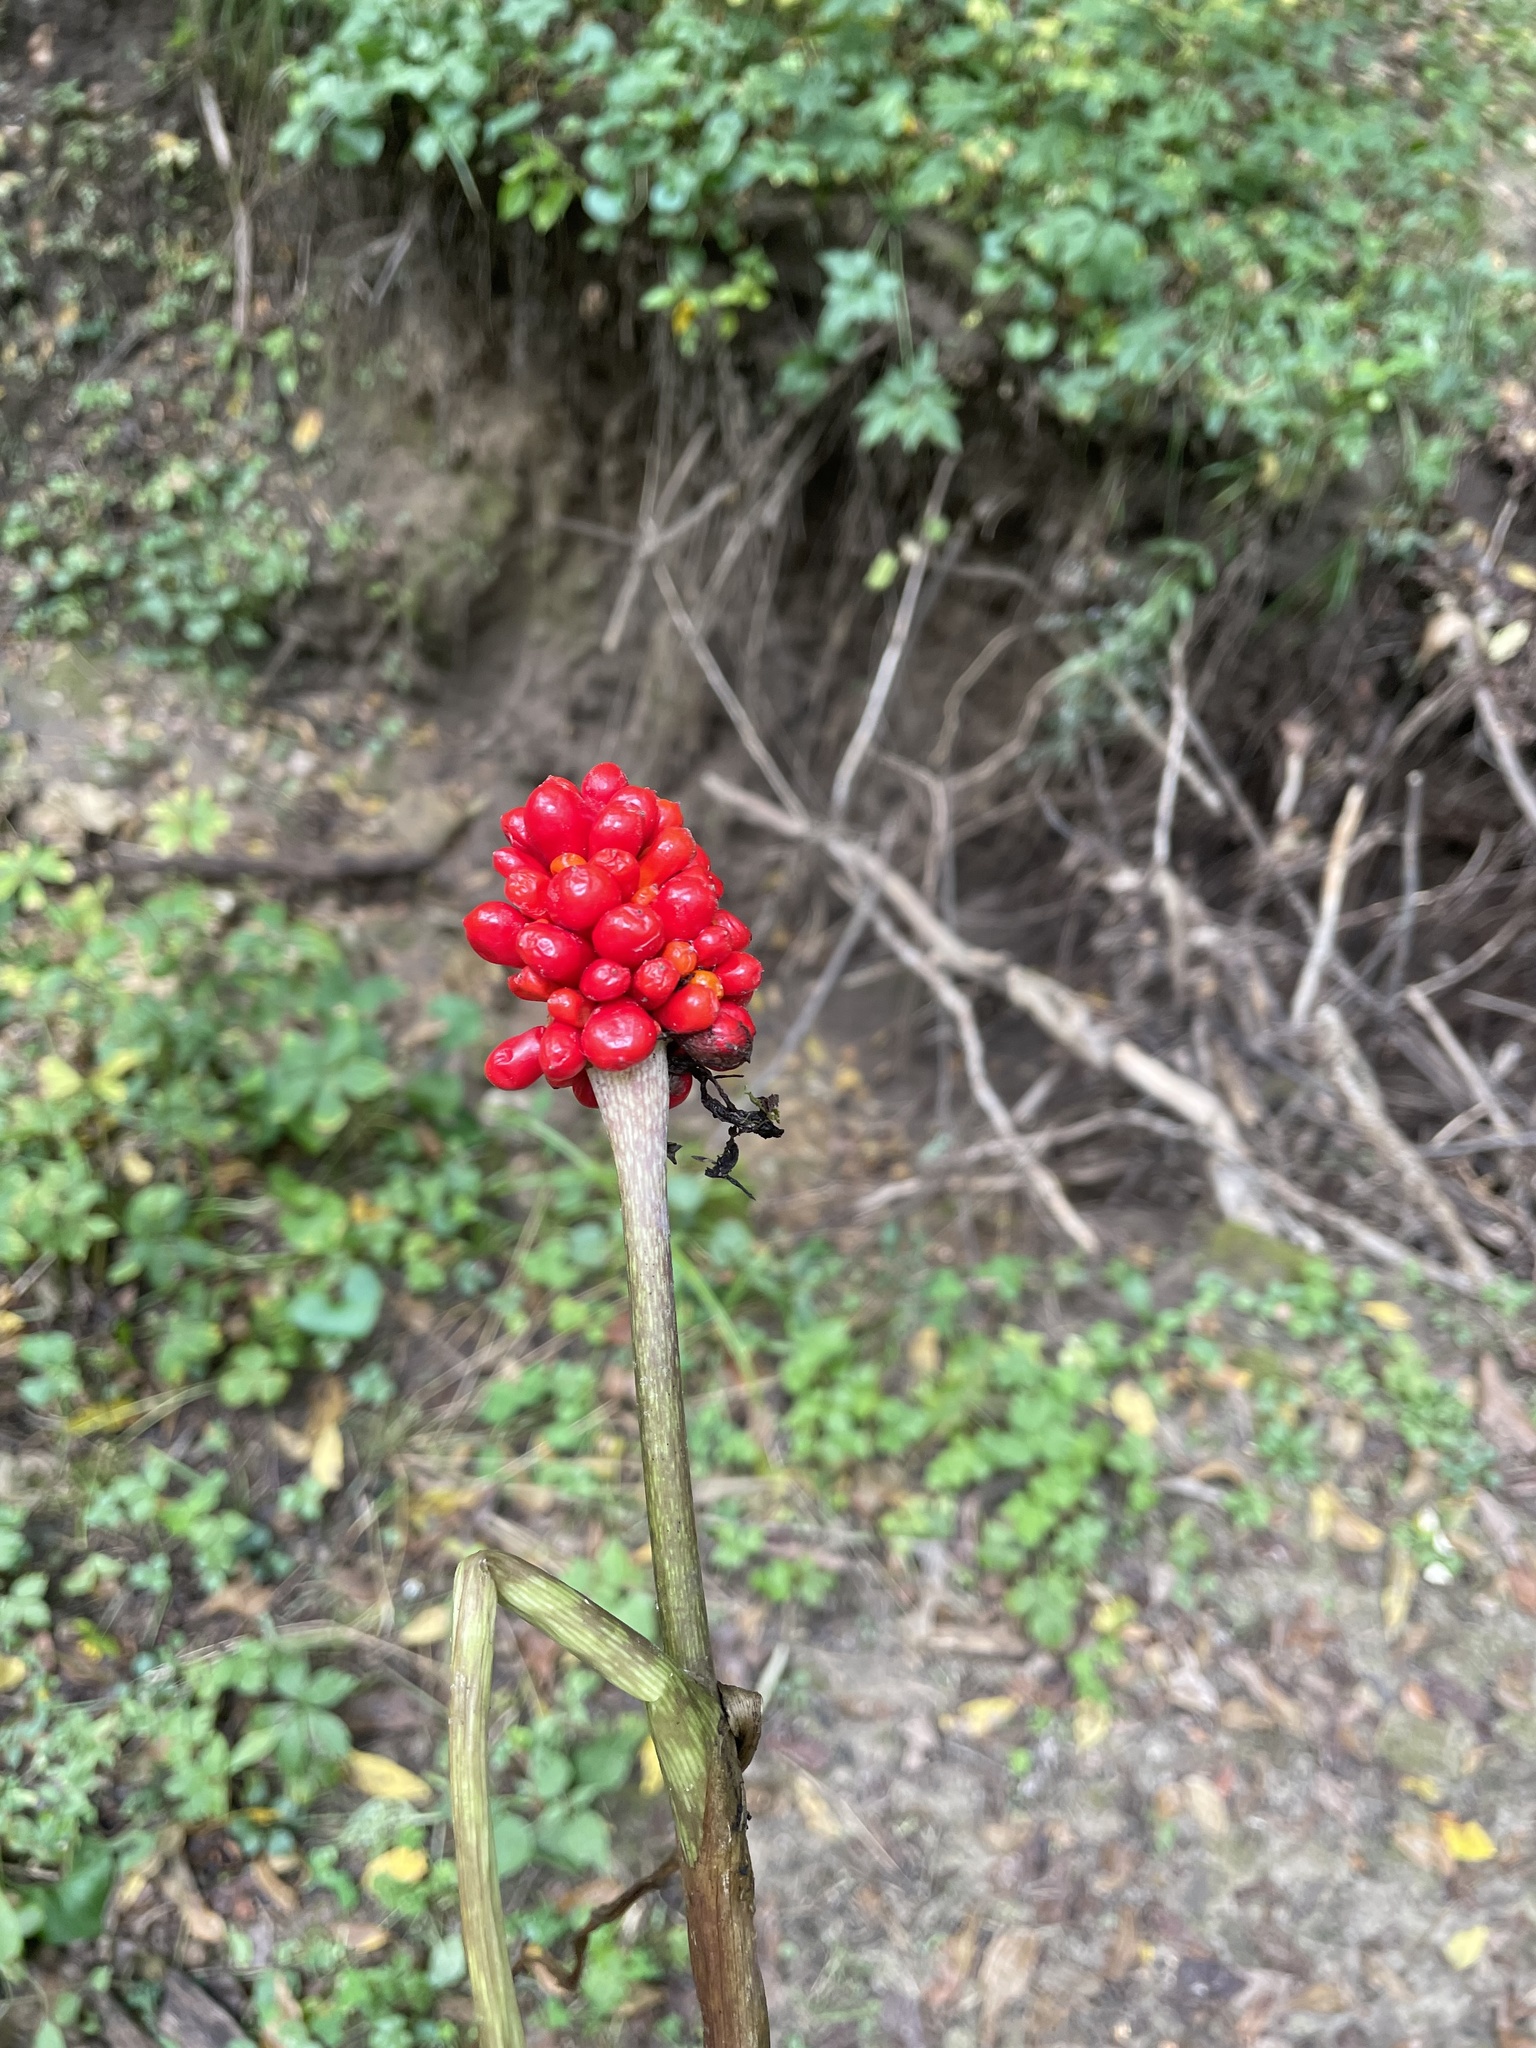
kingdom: Plantae
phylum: Tracheophyta
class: Liliopsida
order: Alismatales
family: Araceae
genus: Arisaema
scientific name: Arisaema triphyllum
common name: Jack-in-the-pulpit
